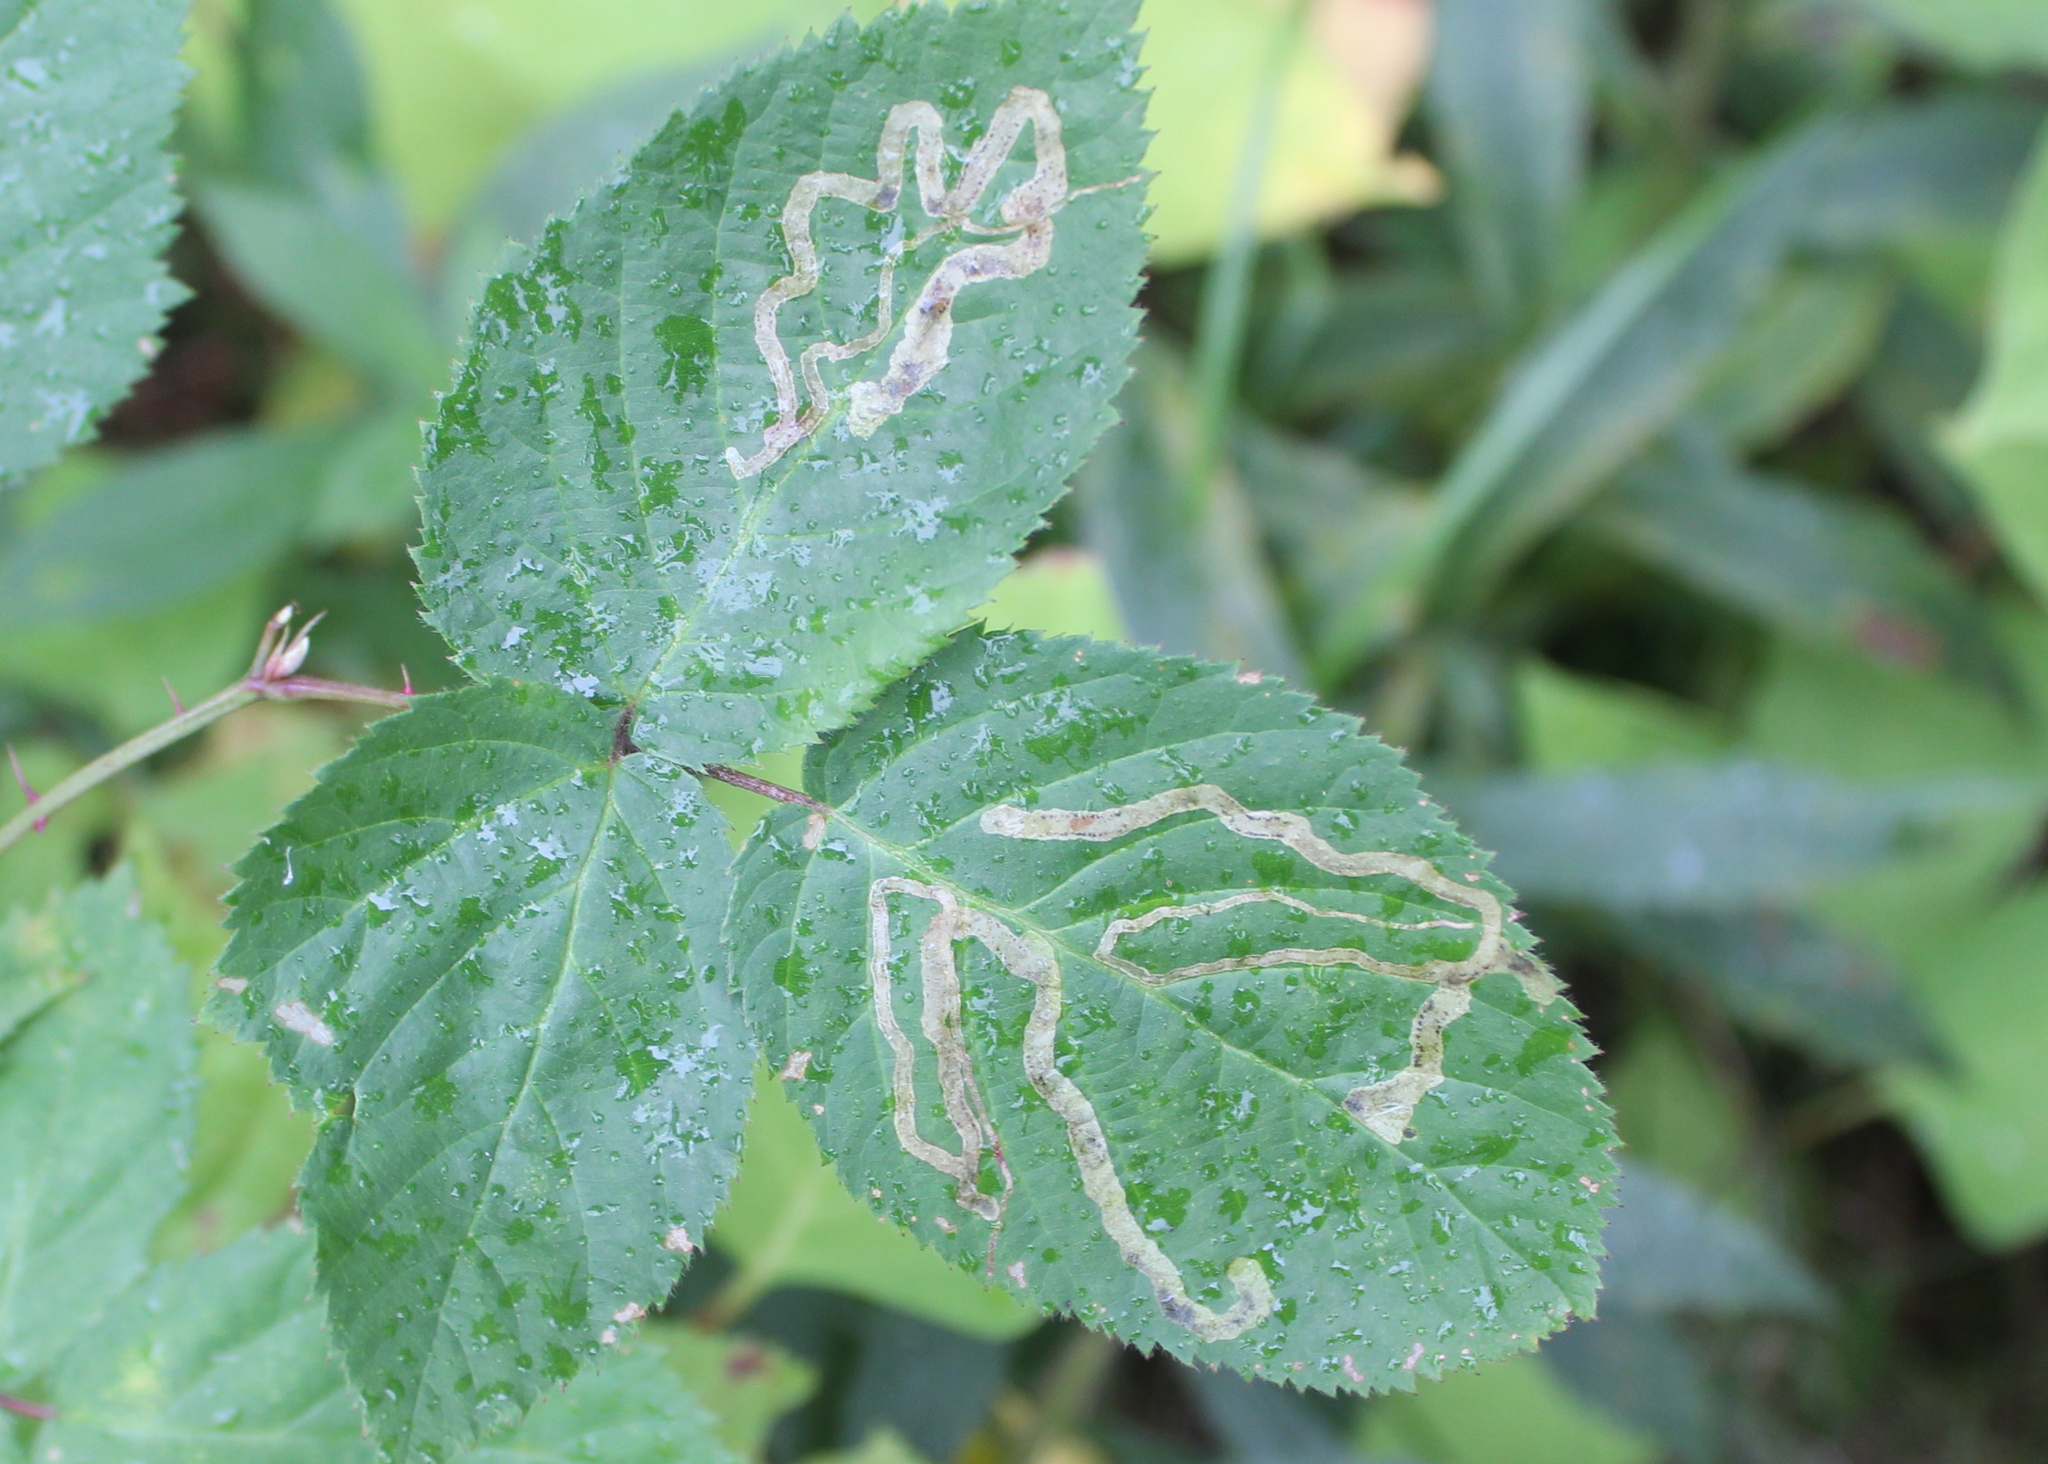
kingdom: Animalia
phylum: Arthropoda
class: Insecta
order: Diptera
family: Agromyzidae
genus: Agromyza
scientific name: Agromyza vockerothi
